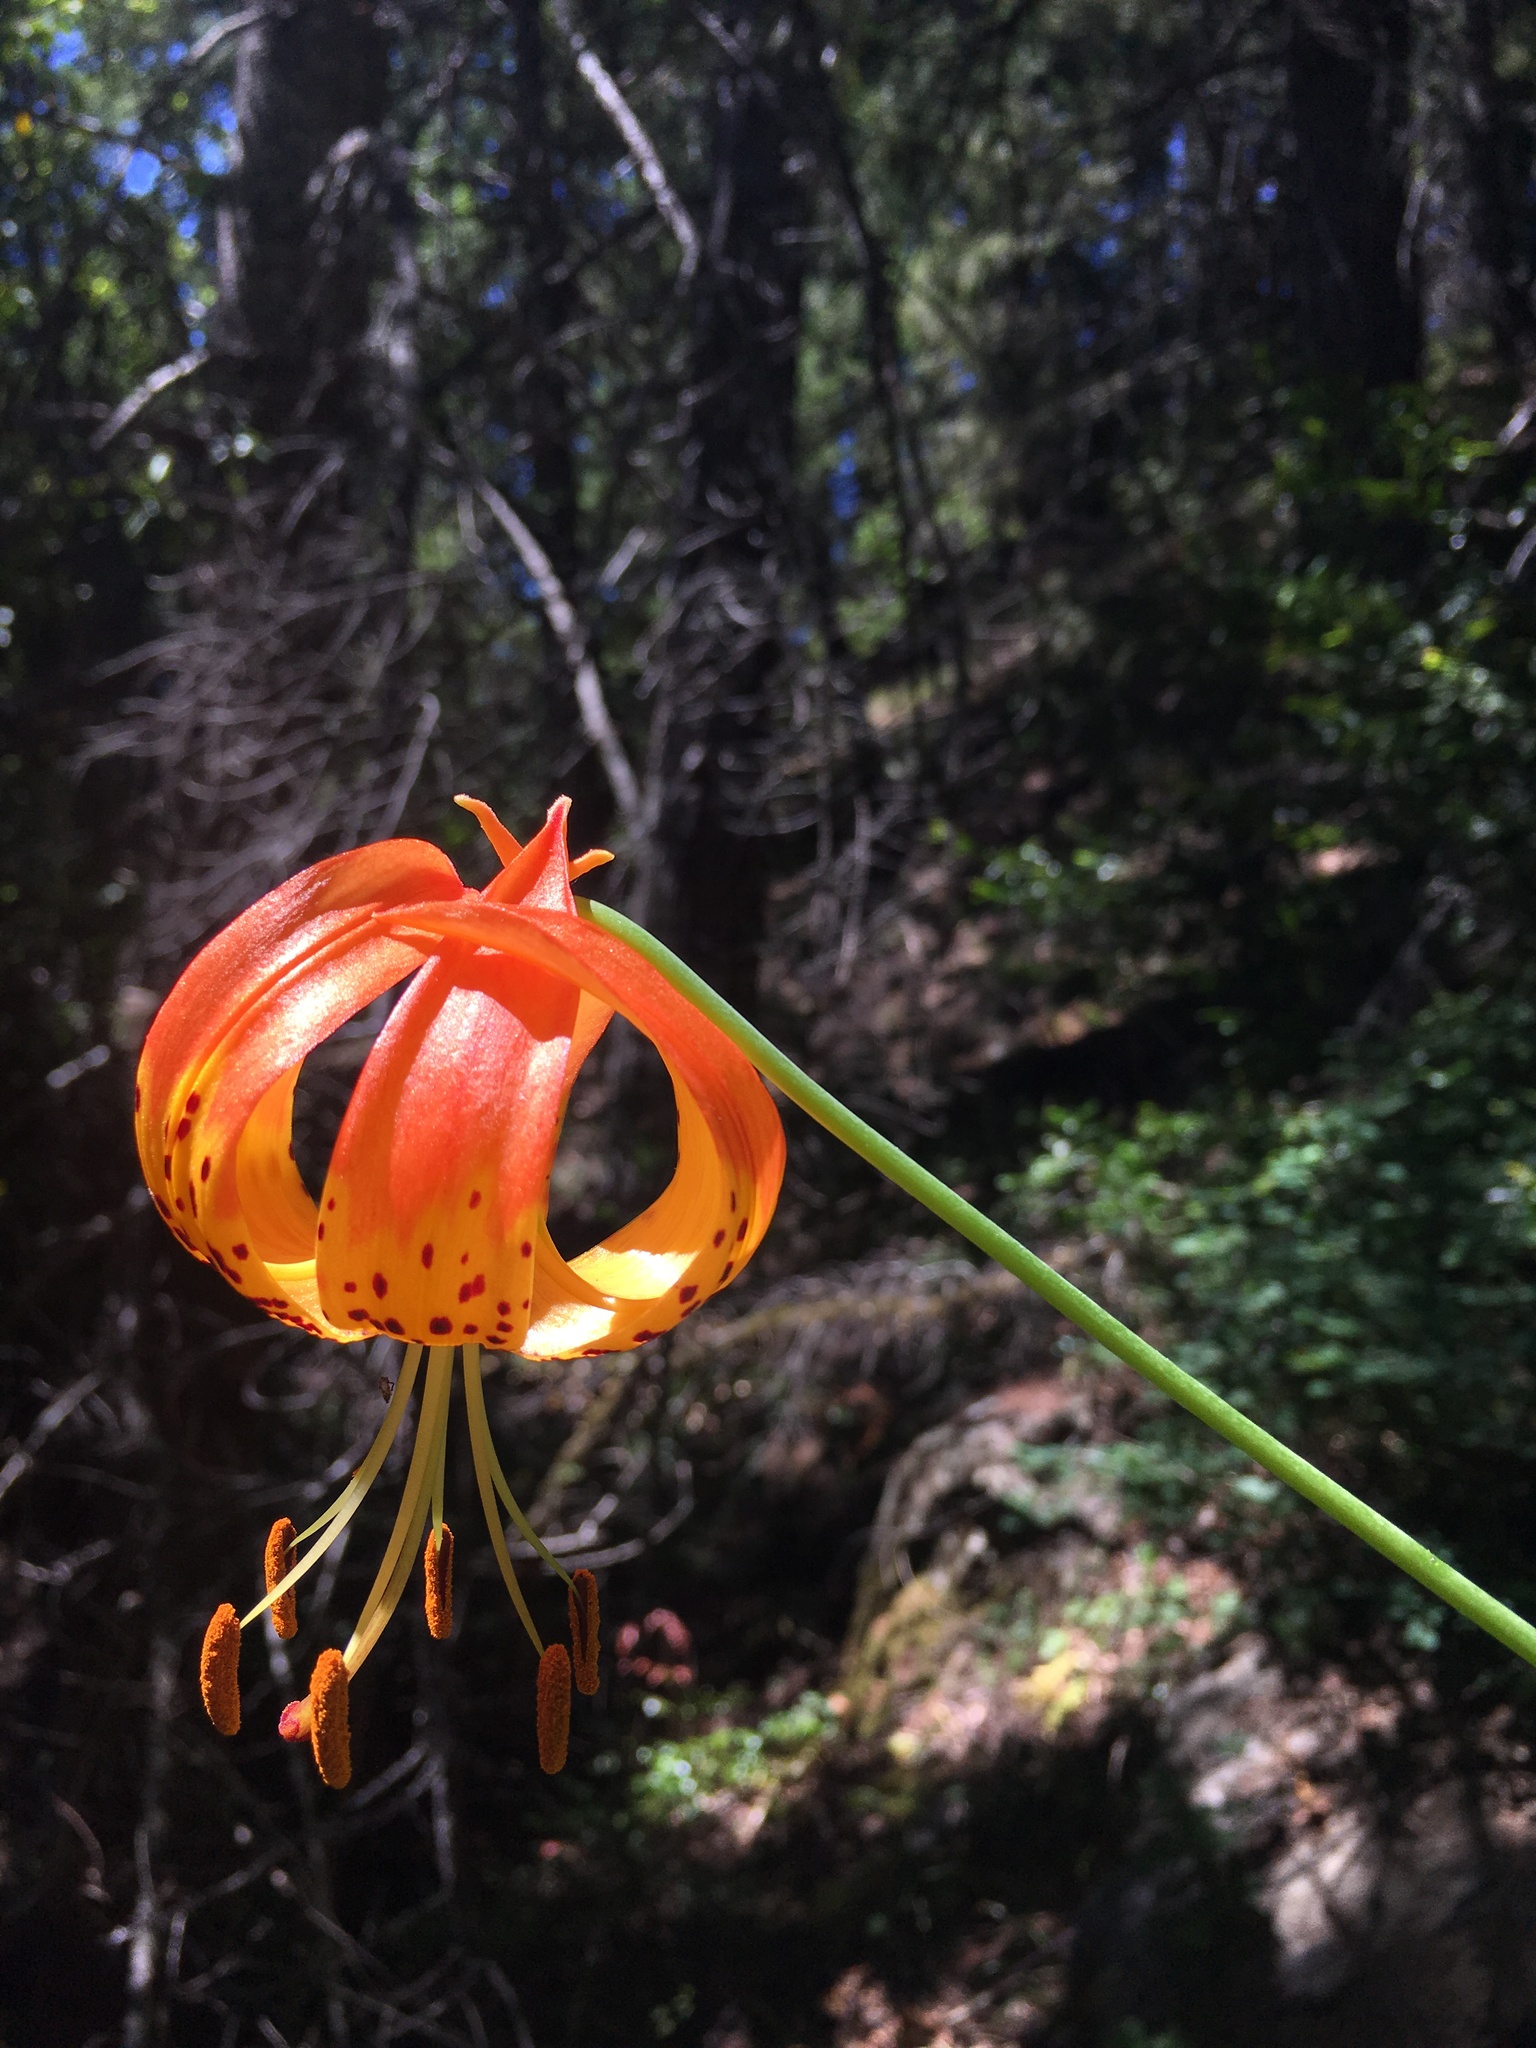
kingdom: Plantae
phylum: Tracheophyta
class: Liliopsida
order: Liliales
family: Liliaceae
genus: Lilium
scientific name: Lilium pardalinum
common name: Panther lily
